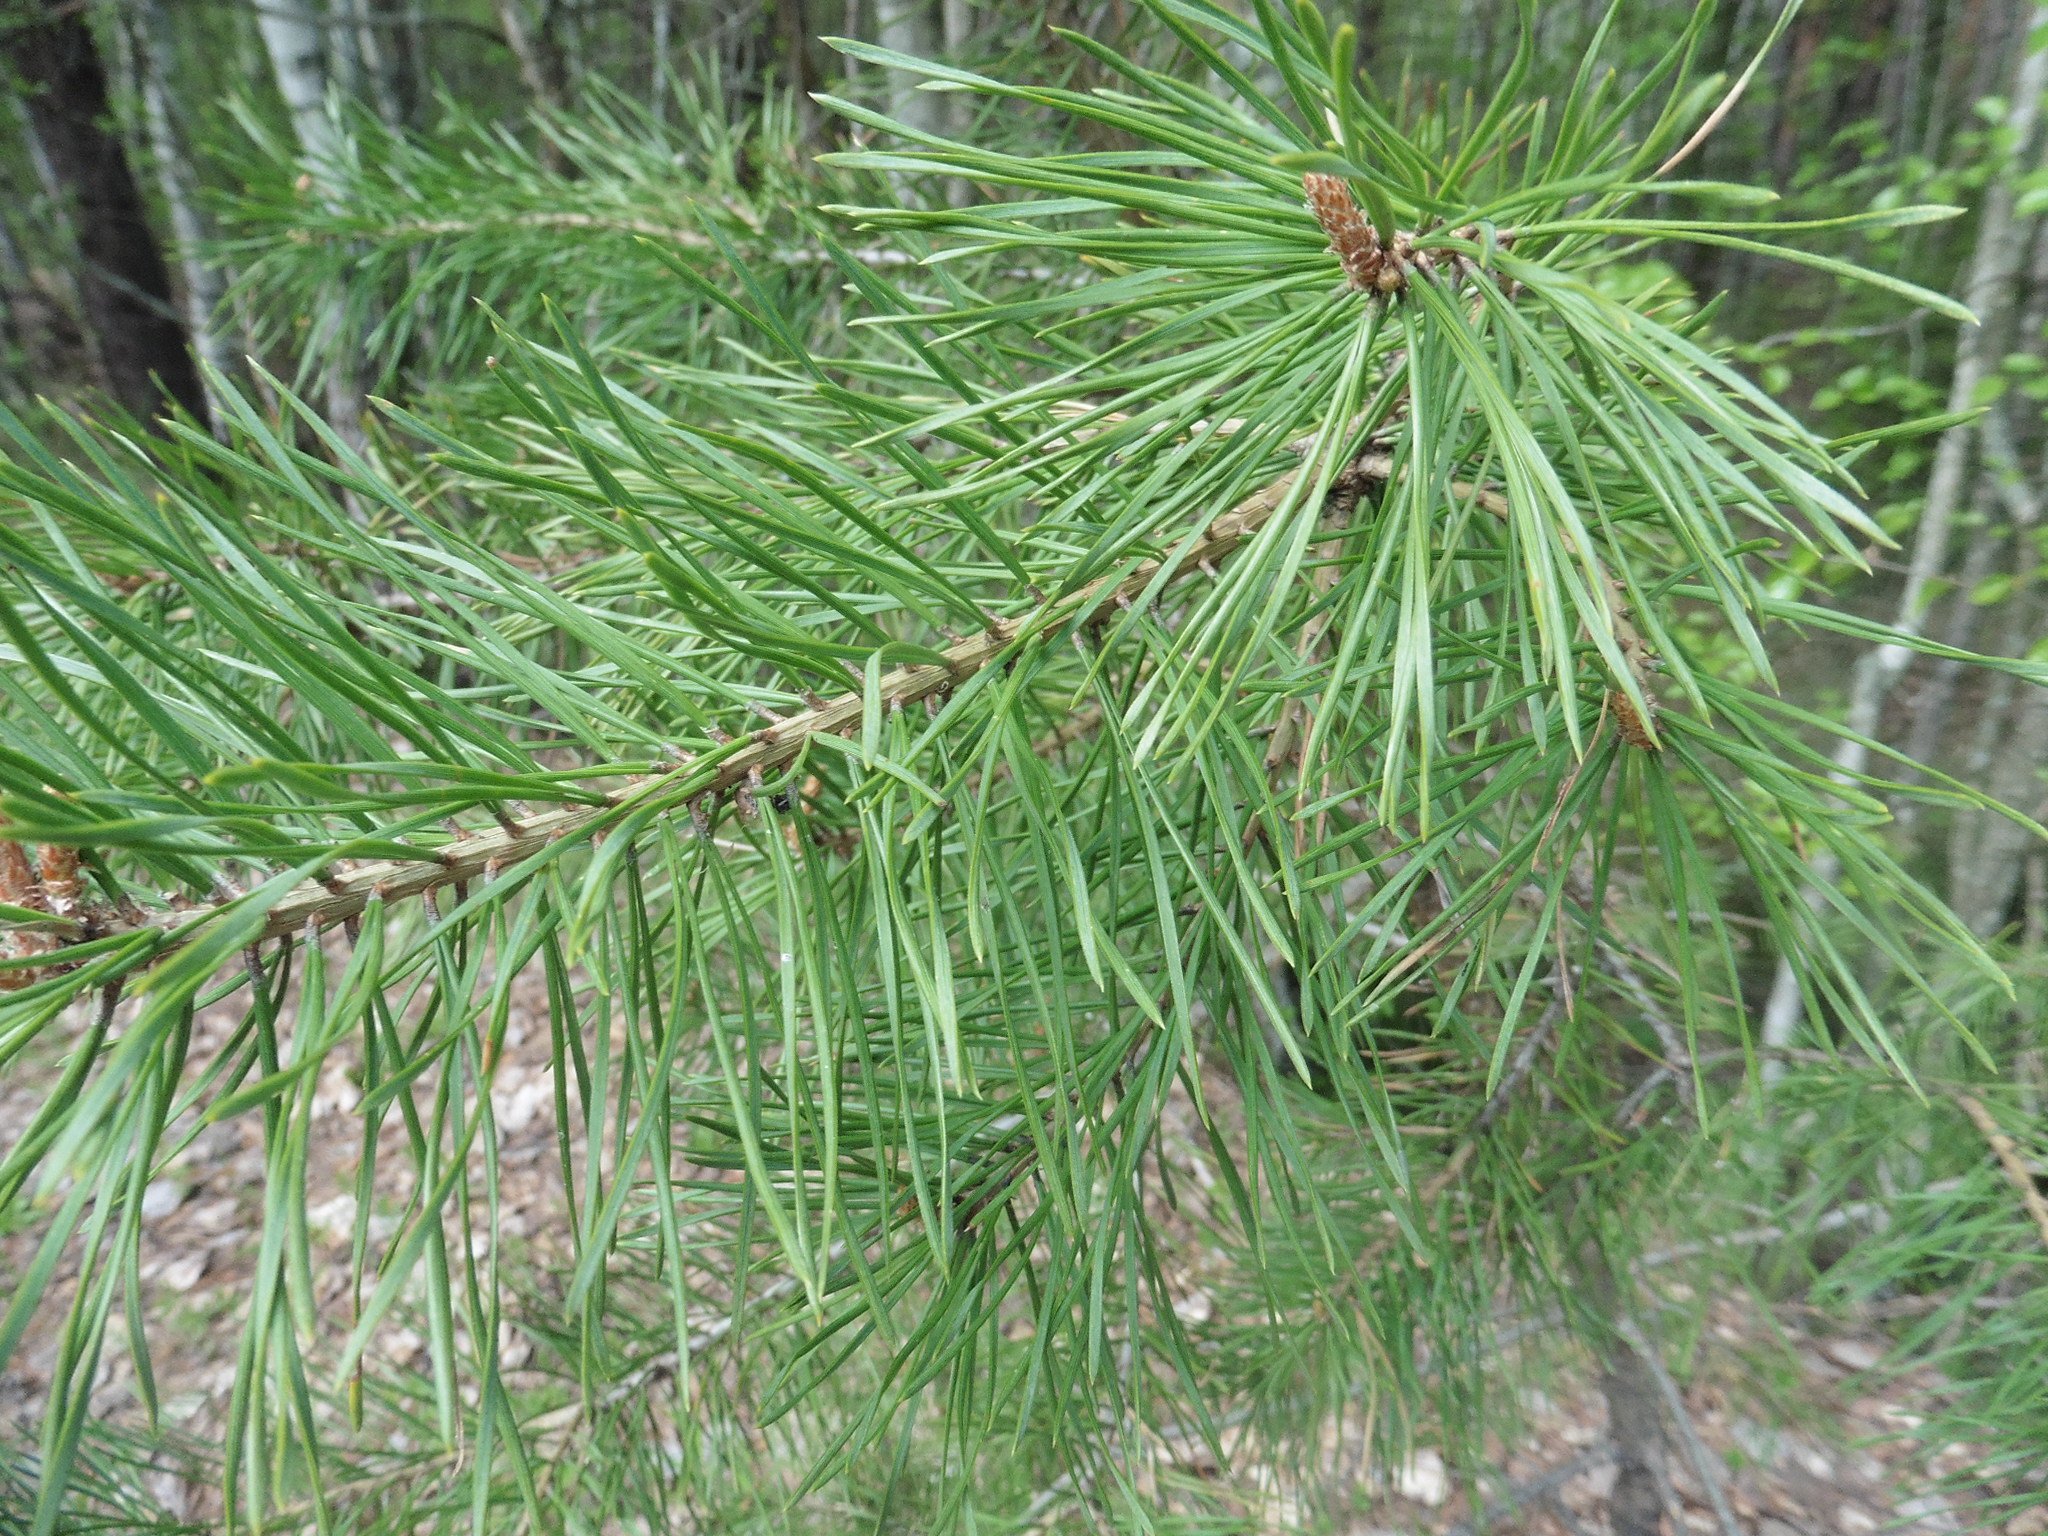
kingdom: Plantae
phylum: Tracheophyta
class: Pinopsida
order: Pinales
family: Pinaceae
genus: Pinus
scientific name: Pinus sylvestris
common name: Scots pine
